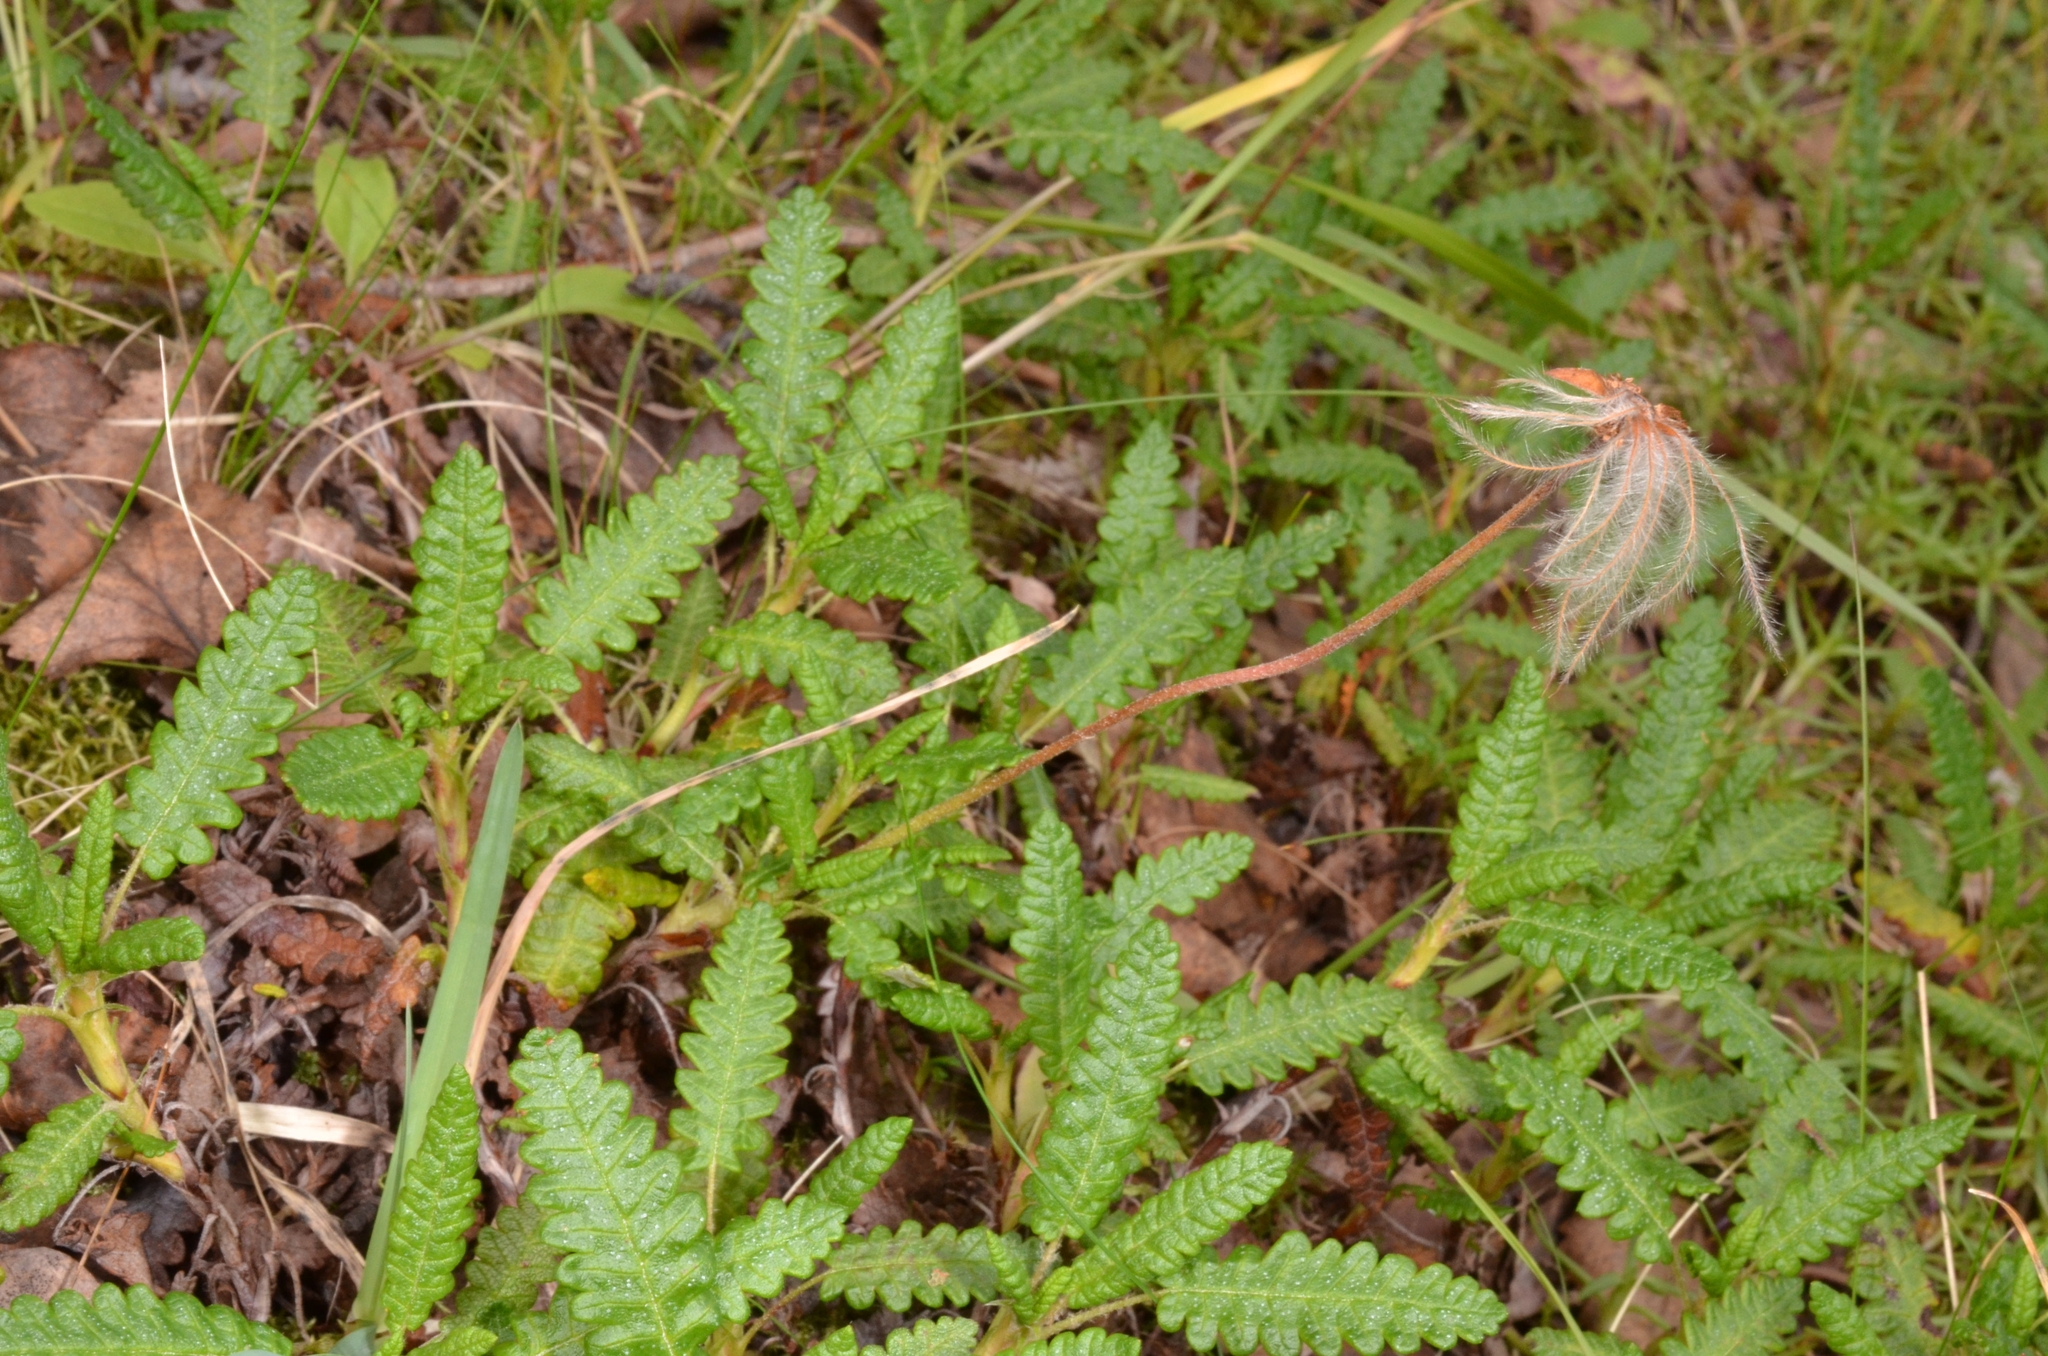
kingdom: Plantae
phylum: Tracheophyta
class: Magnoliopsida
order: Rosales
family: Rosaceae
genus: Dryas
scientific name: Dryas octopetala
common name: Eight-petal mountain-avens
